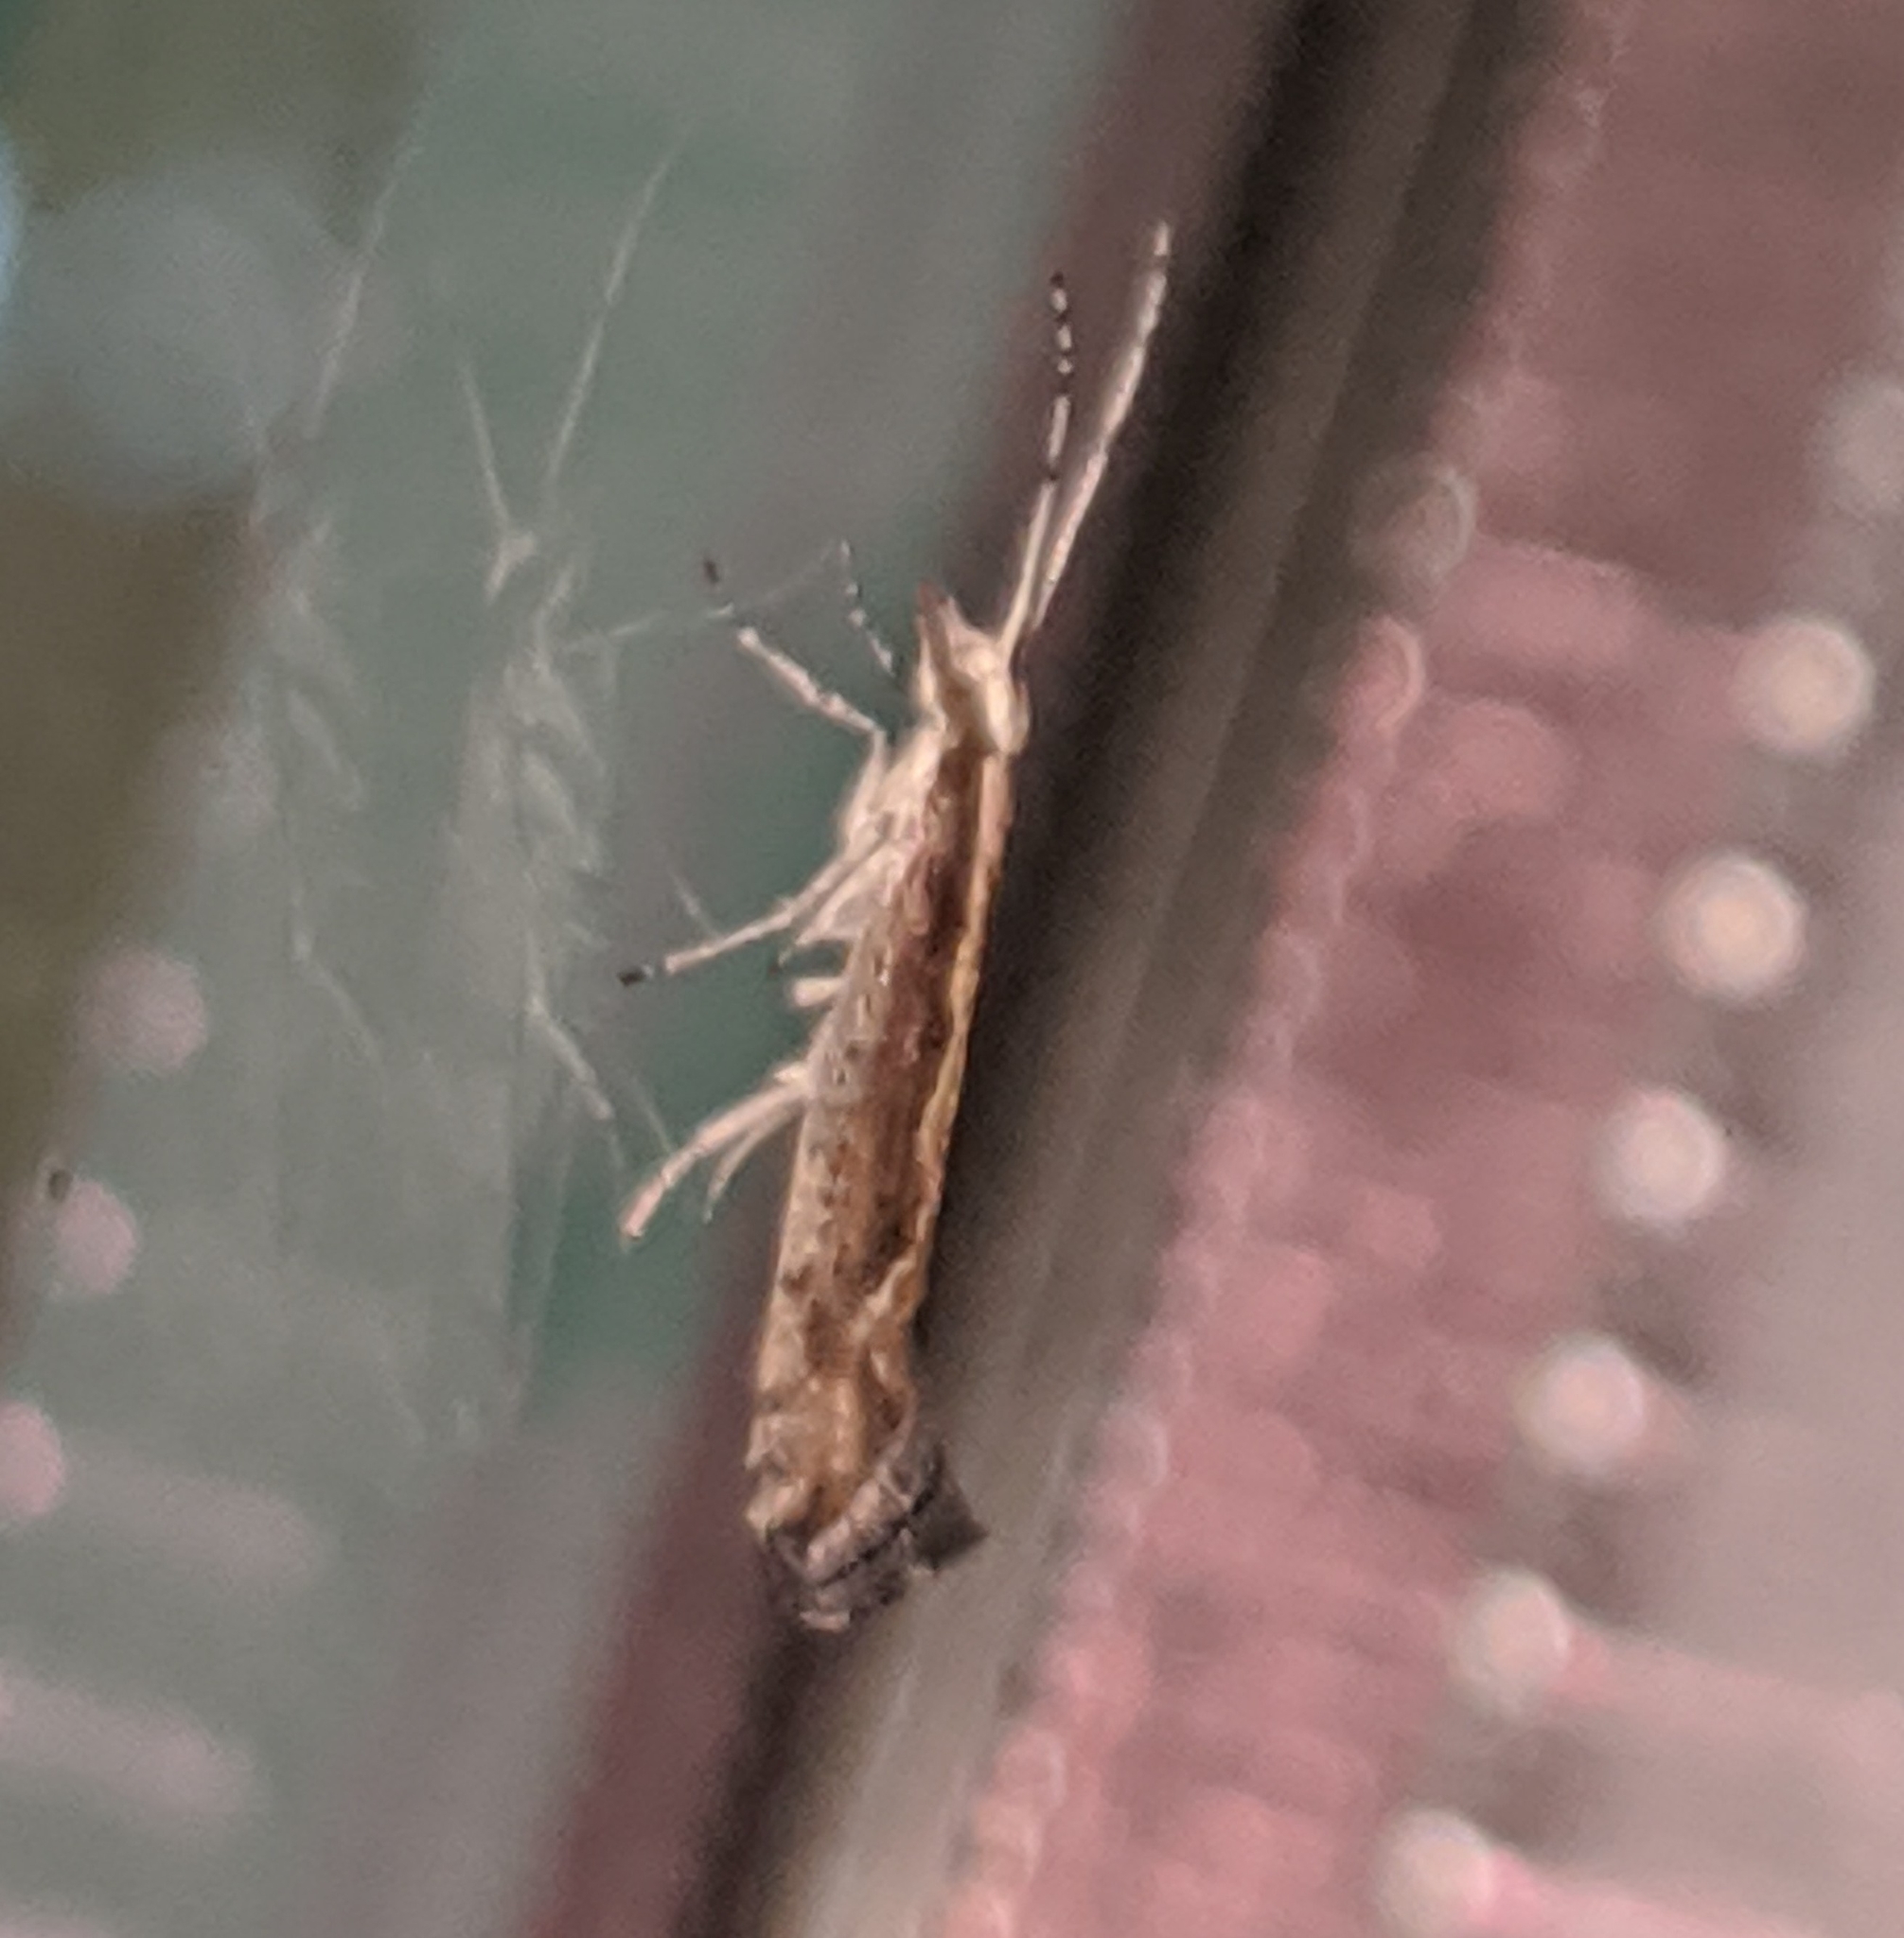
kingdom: Animalia
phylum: Arthropoda
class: Insecta
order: Lepidoptera
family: Plutellidae
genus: Plutella
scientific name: Plutella xylostella
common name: Diamond-back moth
